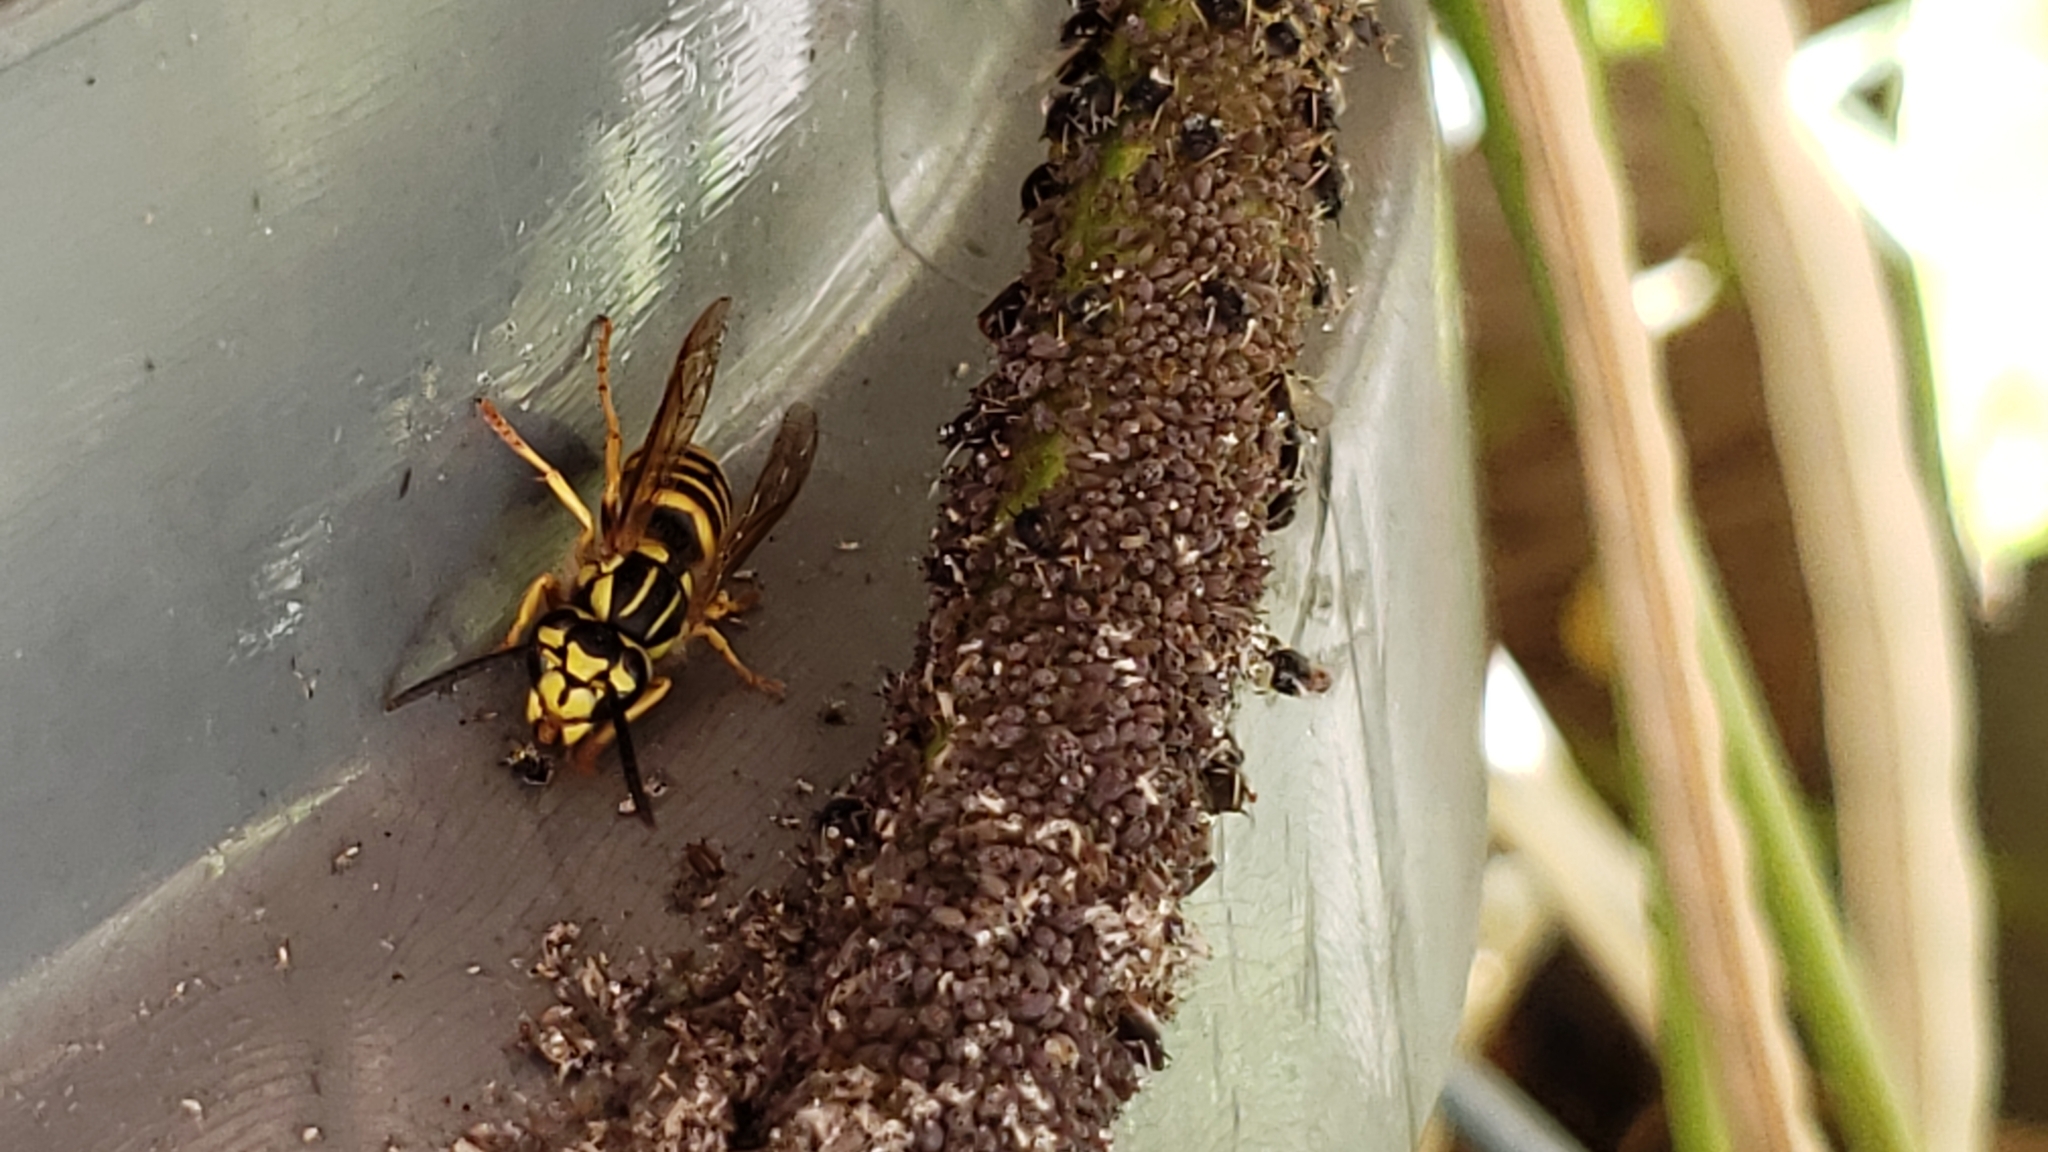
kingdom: Animalia
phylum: Arthropoda
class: Insecta
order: Hymenoptera
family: Vespidae
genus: Vespula
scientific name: Vespula squamosa
